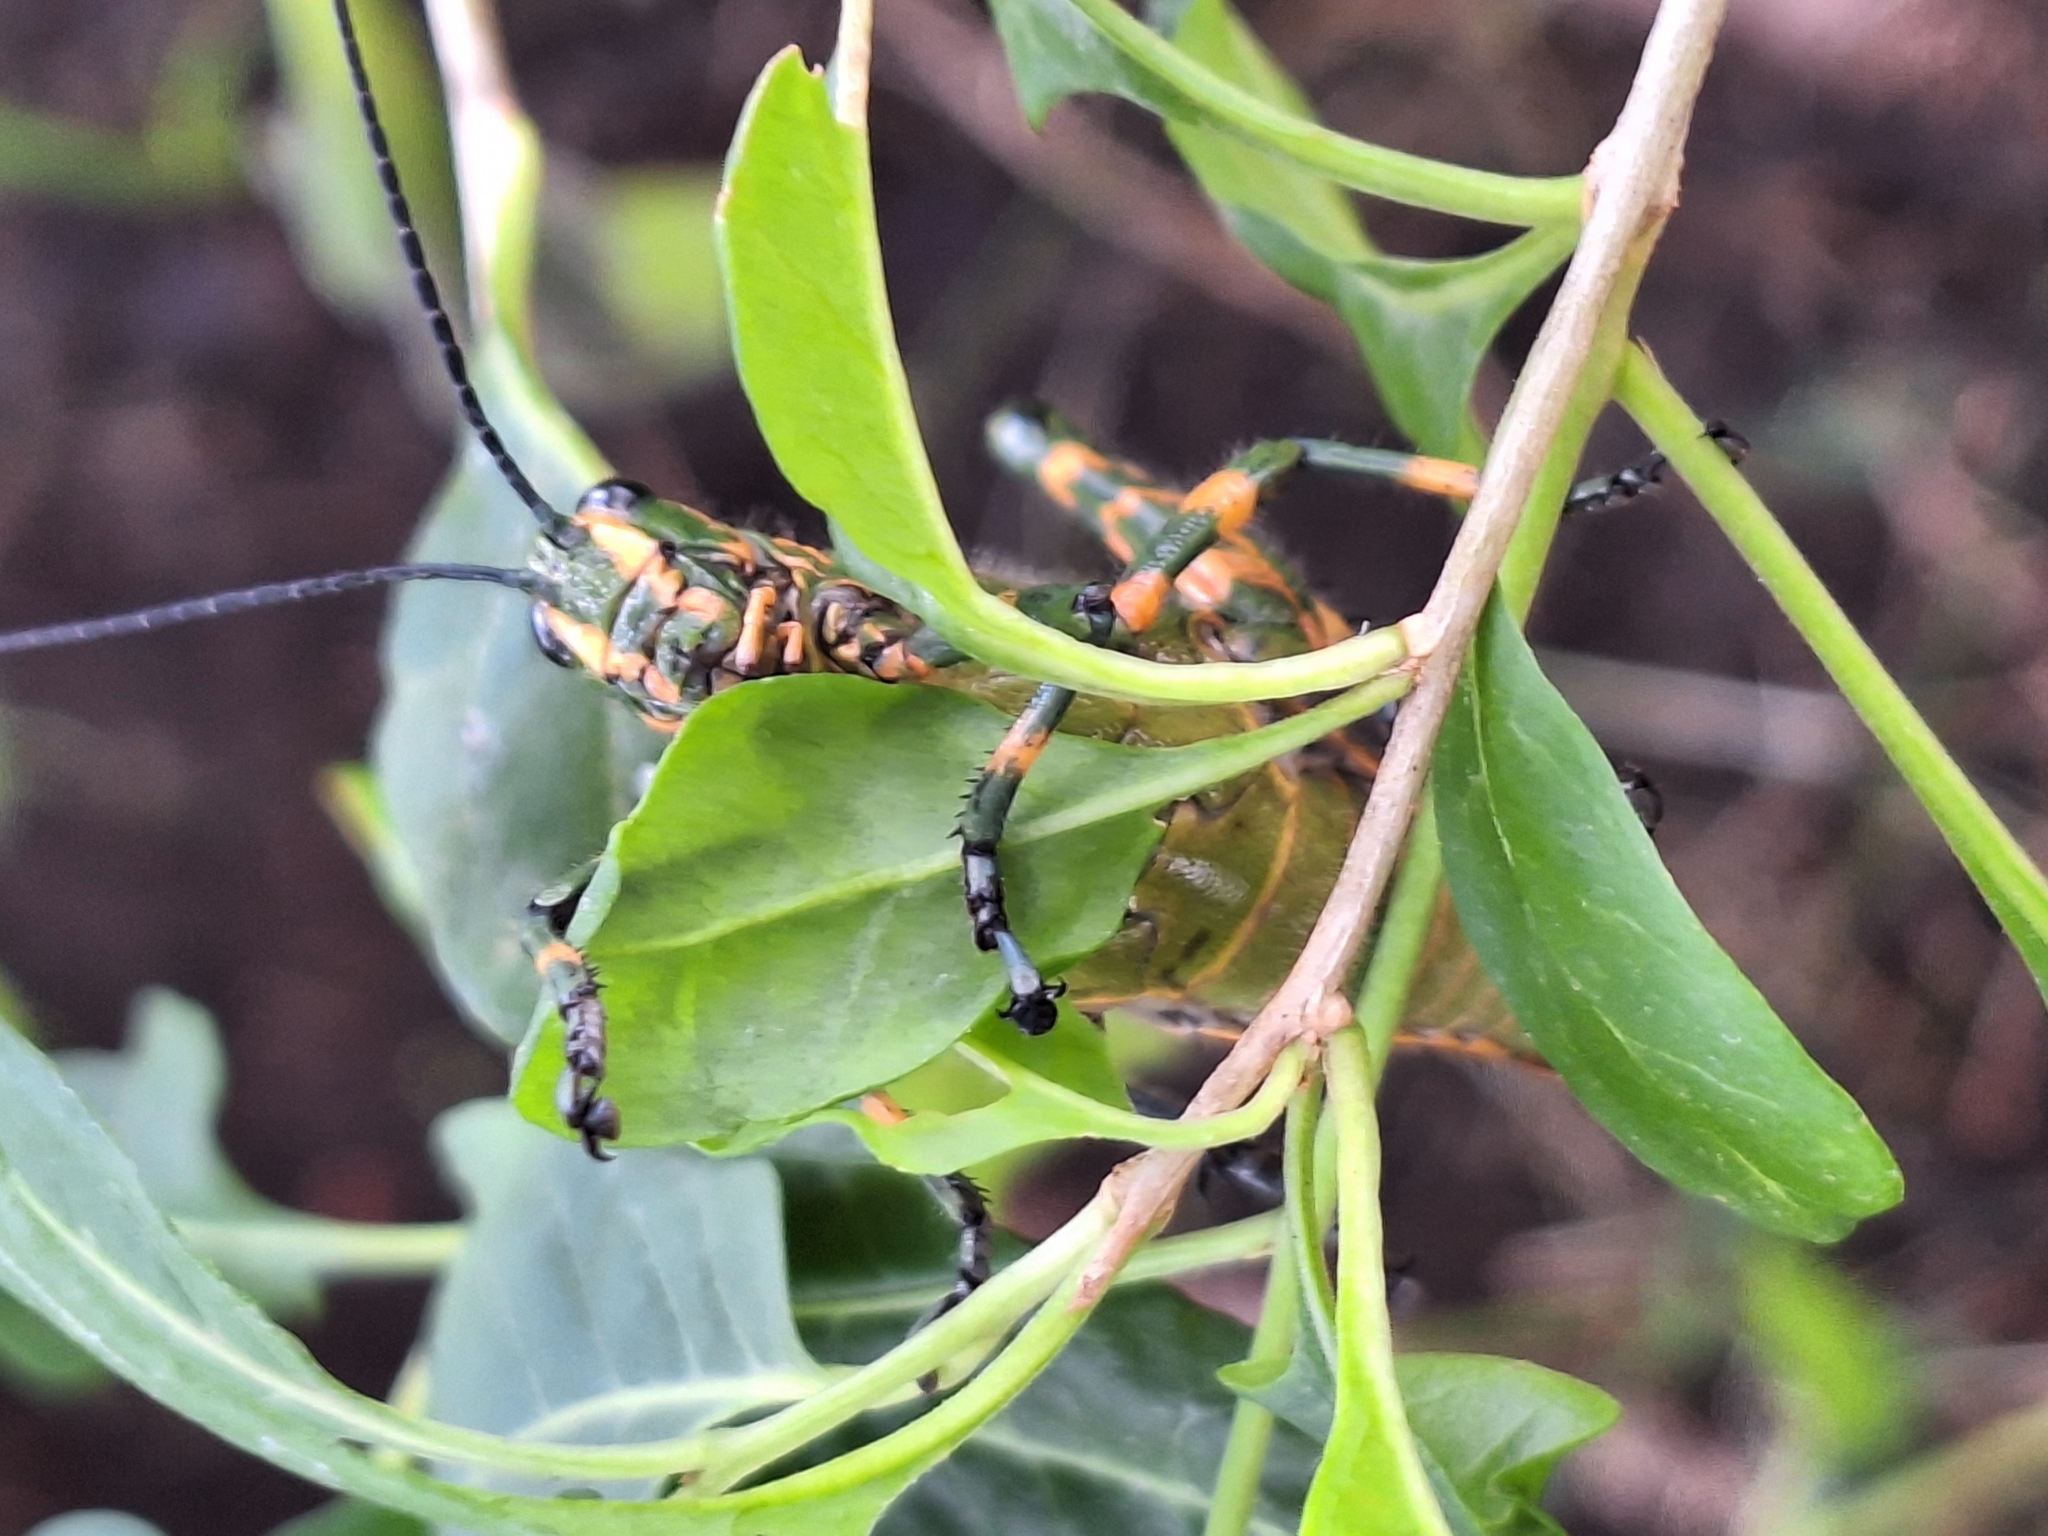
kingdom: Animalia
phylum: Arthropoda
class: Insecta
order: Orthoptera
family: Romaleidae
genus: Chromacris
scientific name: Chromacris speciosa
